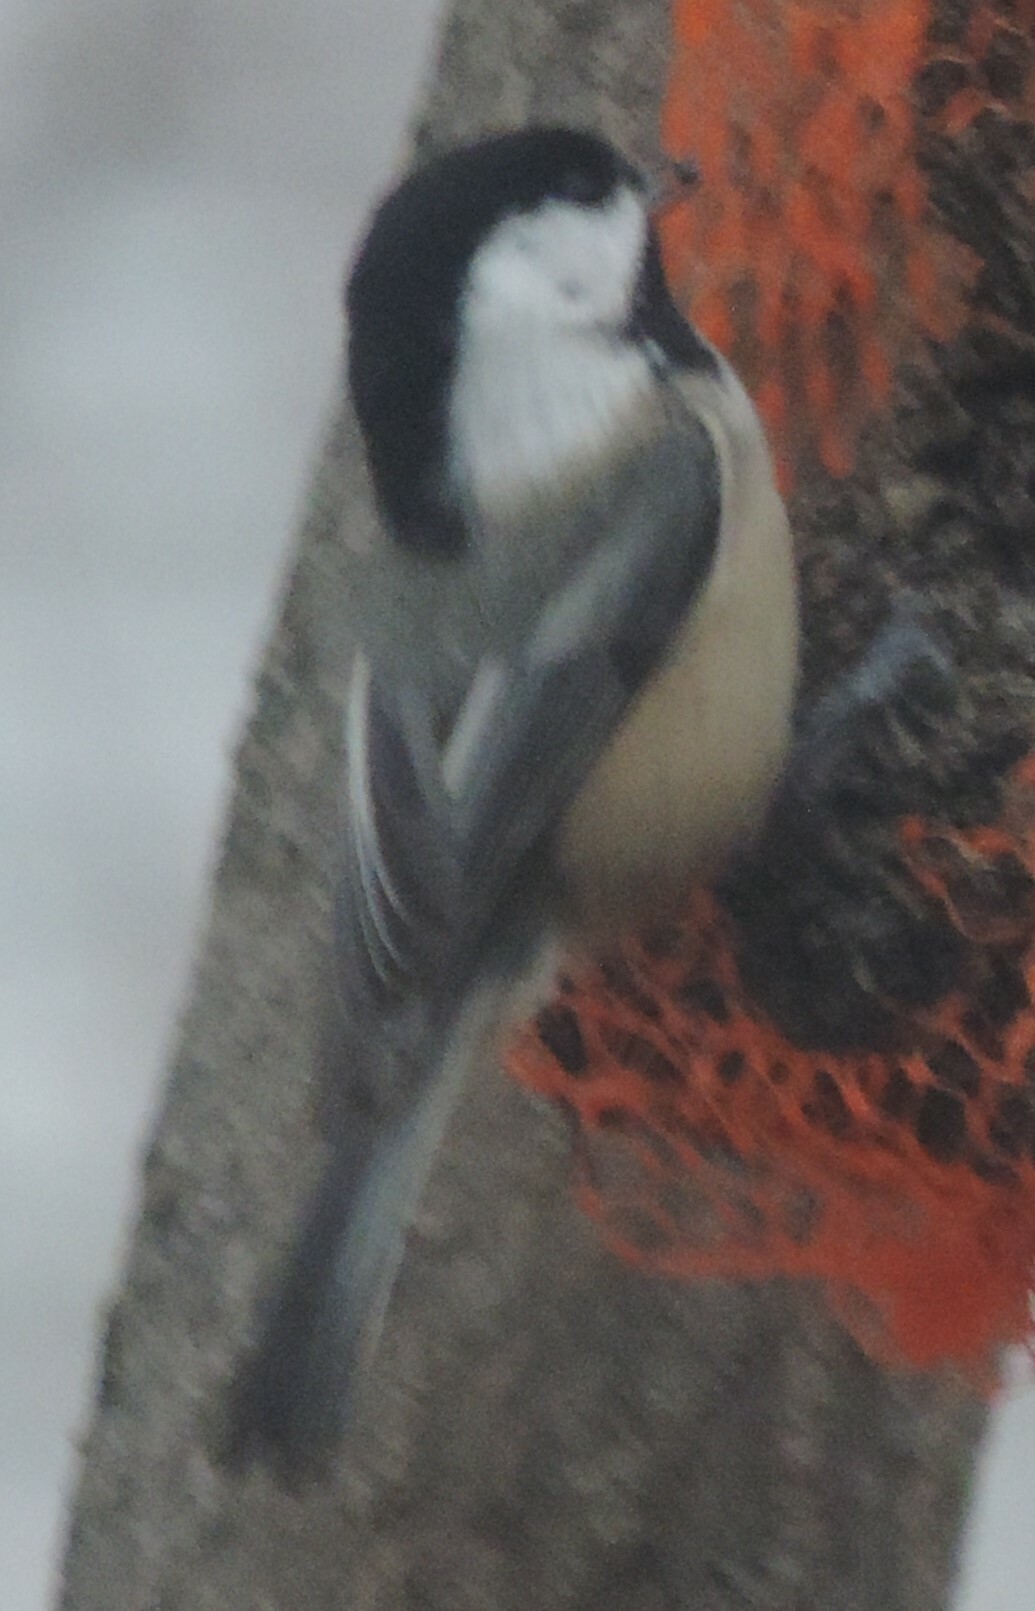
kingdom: Animalia
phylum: Chordata
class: Aves
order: Passeriformes
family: Paridae
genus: Poecile
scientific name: Poecile atricapillus
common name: Black-capped chickadee
